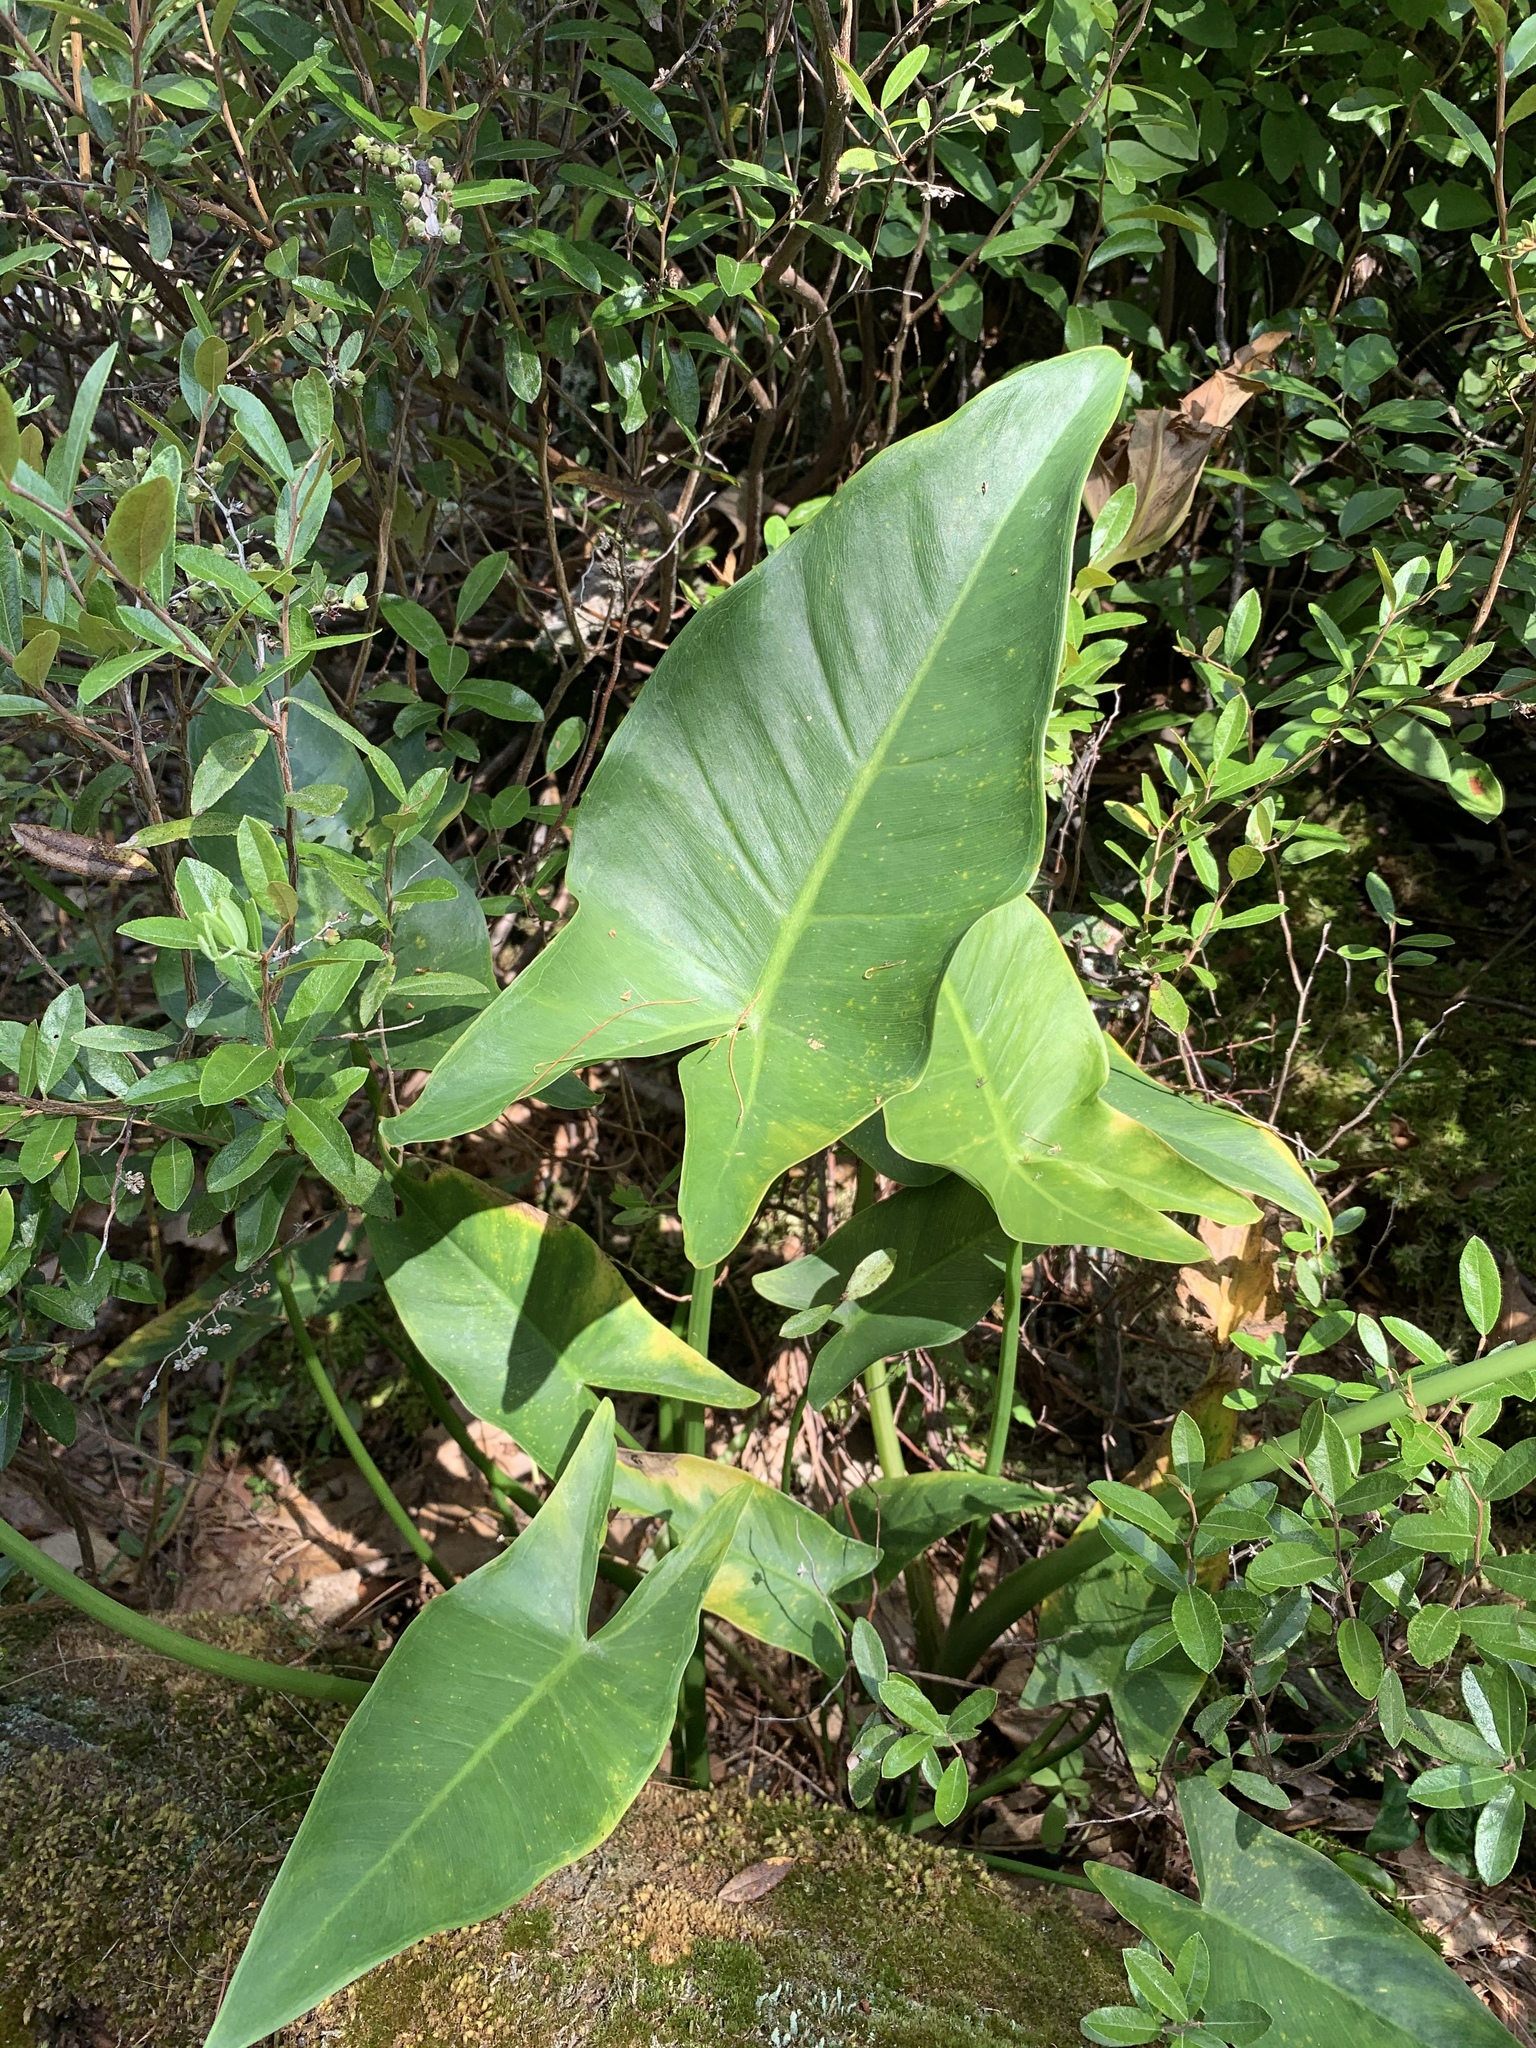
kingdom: Plantae
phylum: Tracheophyta
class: Liliopsida
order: Alismatales
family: Araceae
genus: Peltandra
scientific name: Peltandra virginica
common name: Arrow arum
